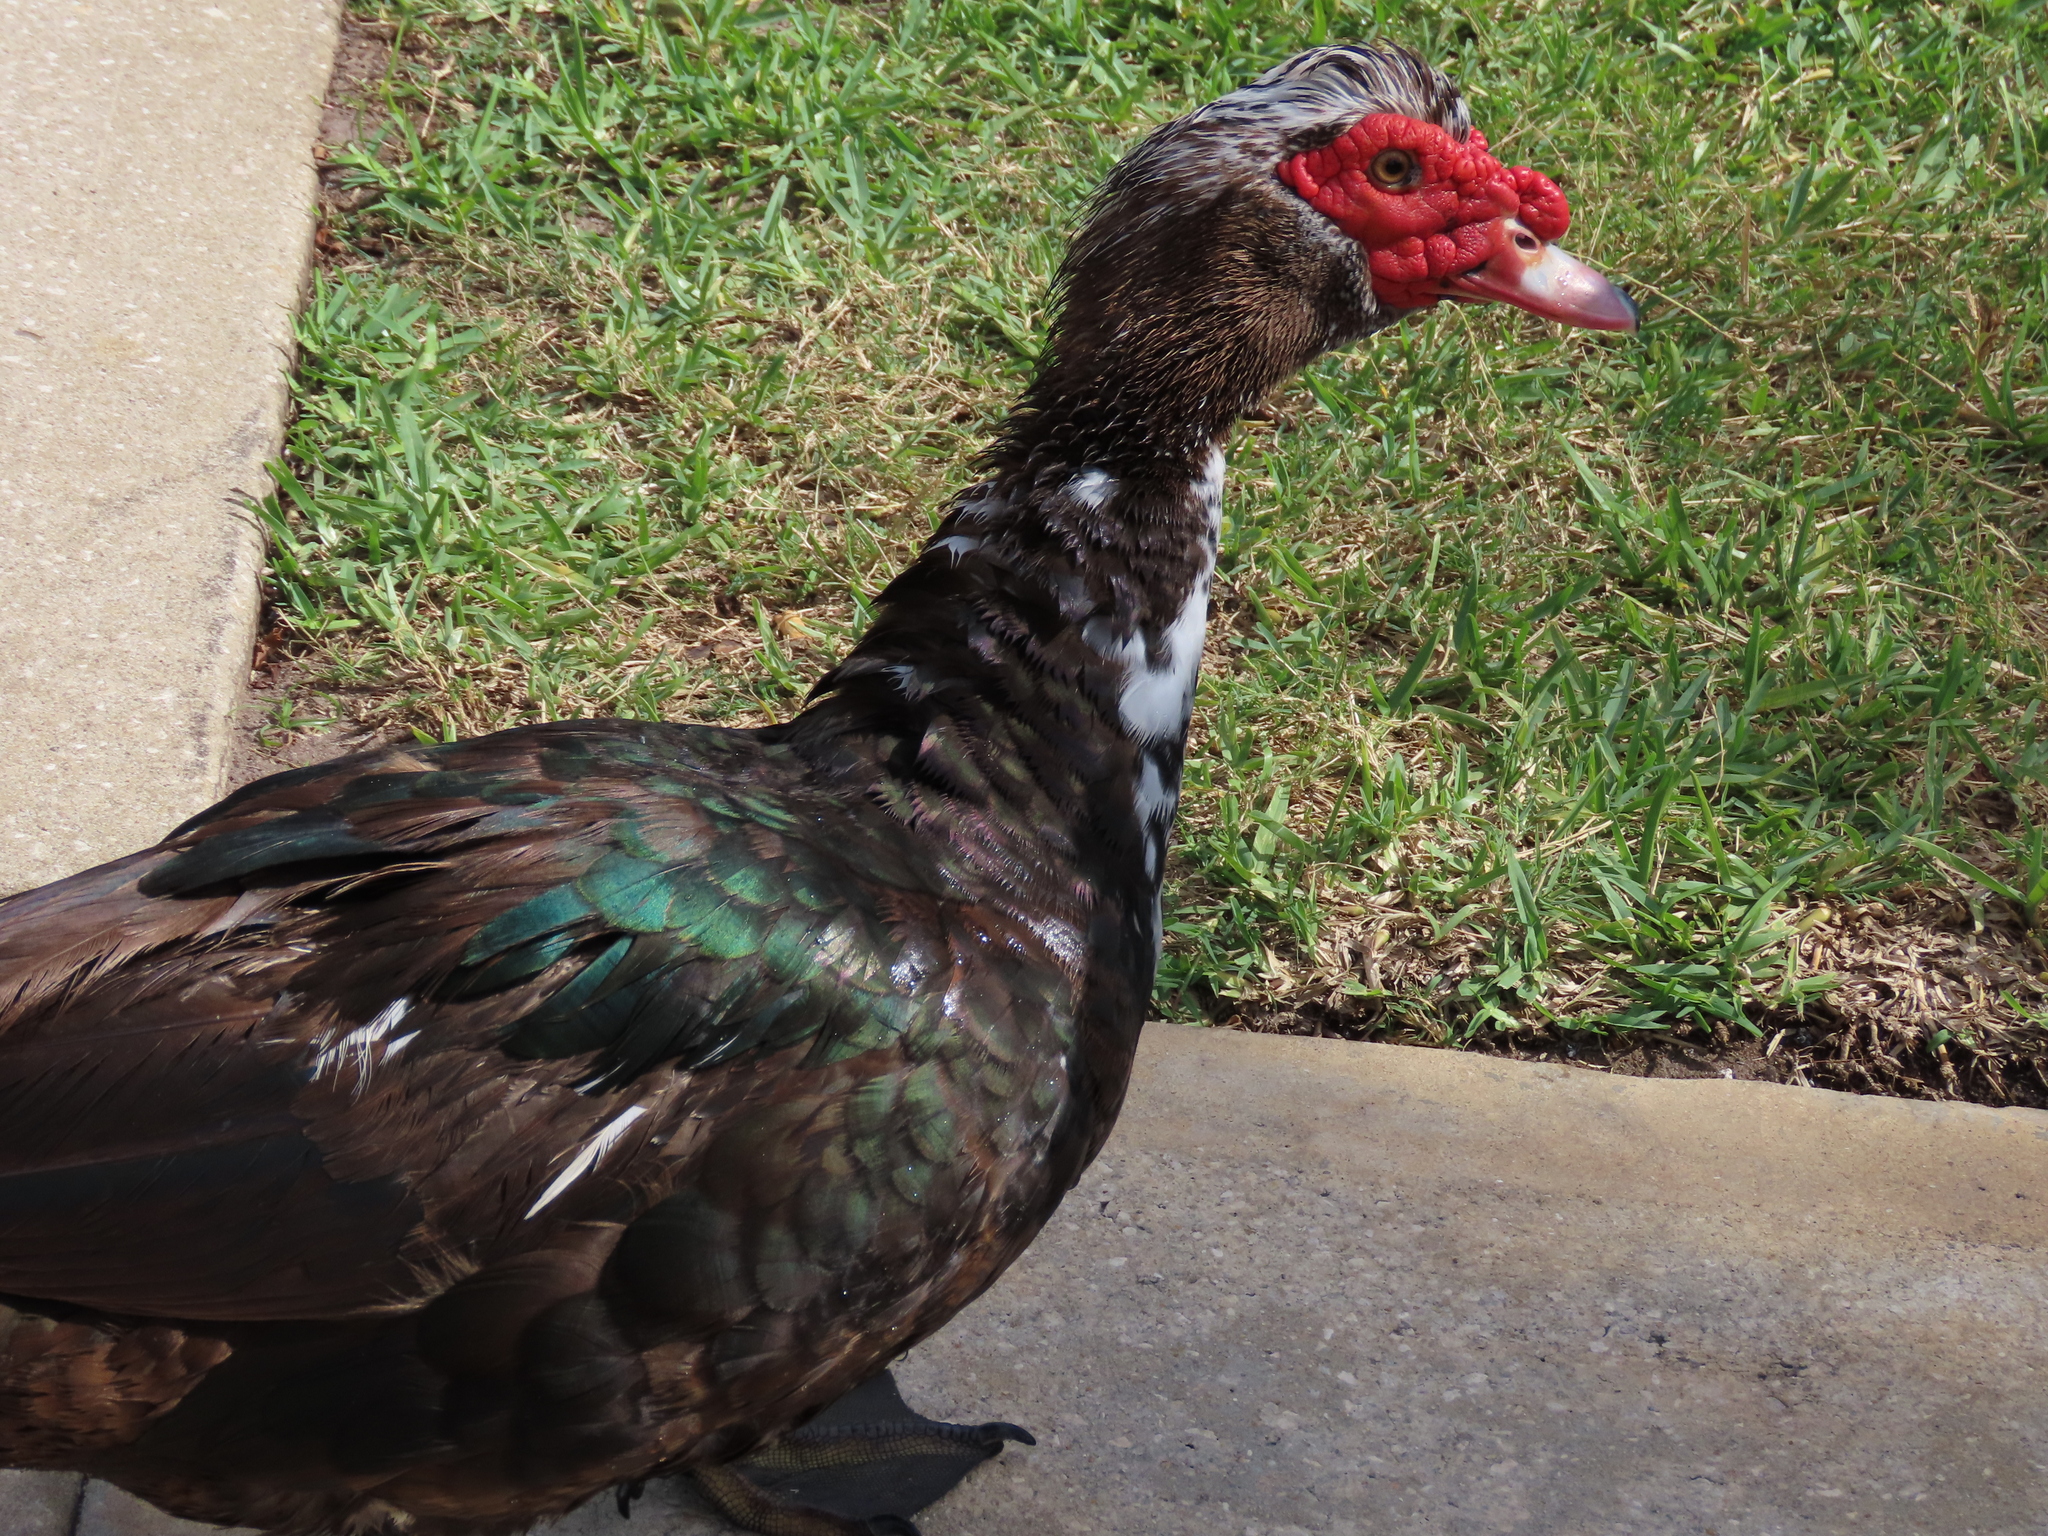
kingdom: Animalia
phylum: Chordata
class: Aves
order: Anseriformes
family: Anatidae
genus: Cairina
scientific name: Cairina moschata
